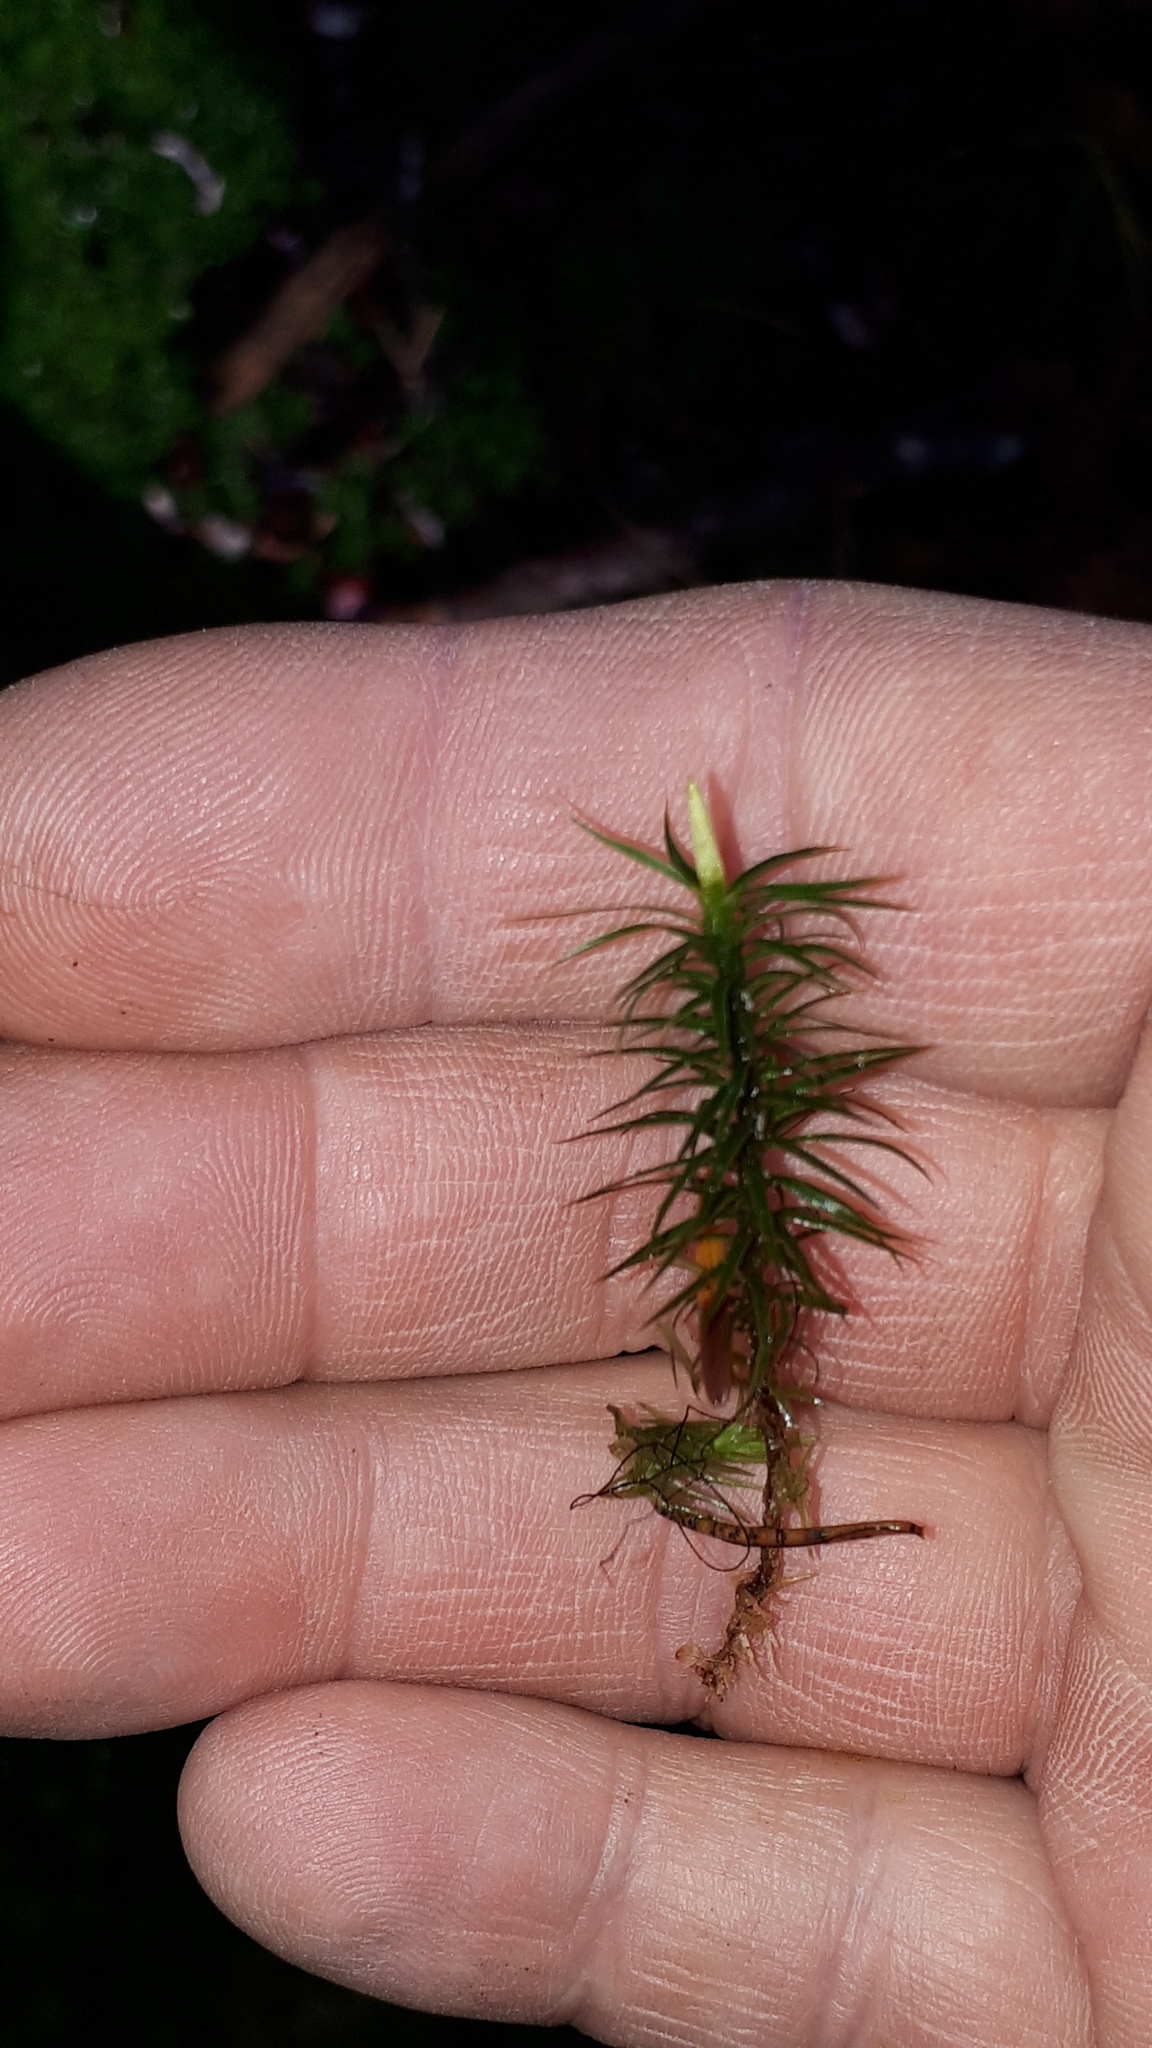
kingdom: Plantae
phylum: Bryophyta
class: Polytrichopsida
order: Polytrichales
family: Polytrichaceae
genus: Polytrichum
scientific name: Polytrichum formosum
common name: Bank haircap moss
